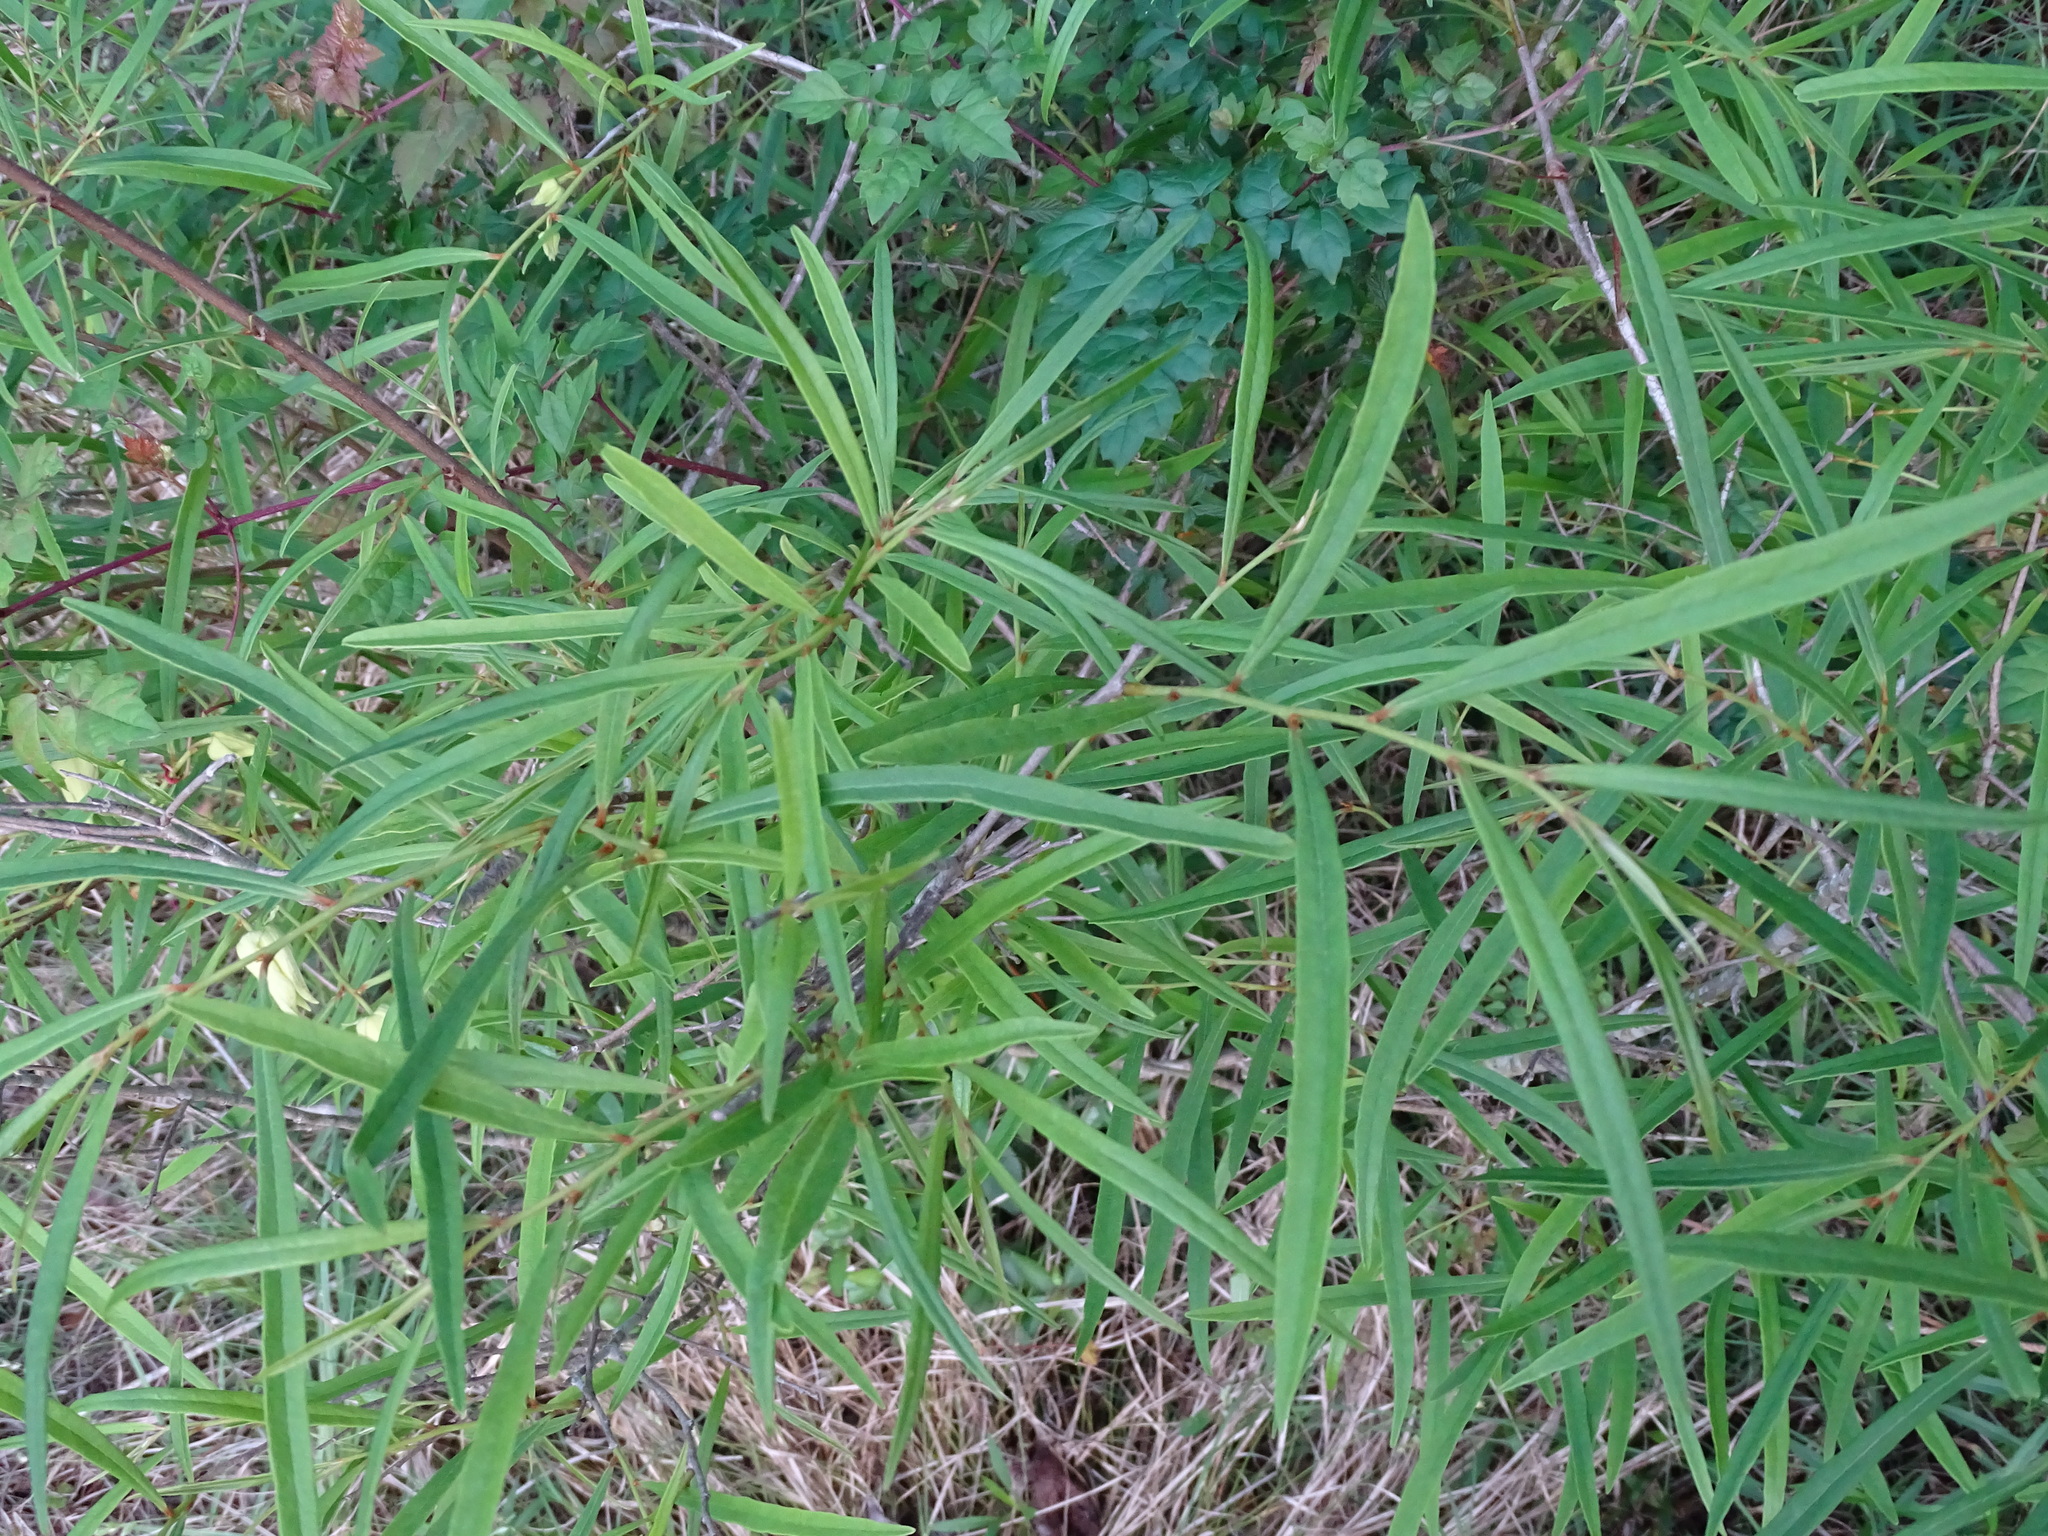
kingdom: Plantae
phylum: Tracheophyta
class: Magnoliopsida
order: Magnoliales
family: Annonaceae
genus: Asimina
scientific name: Asimina longifolia
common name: Polecatbush
